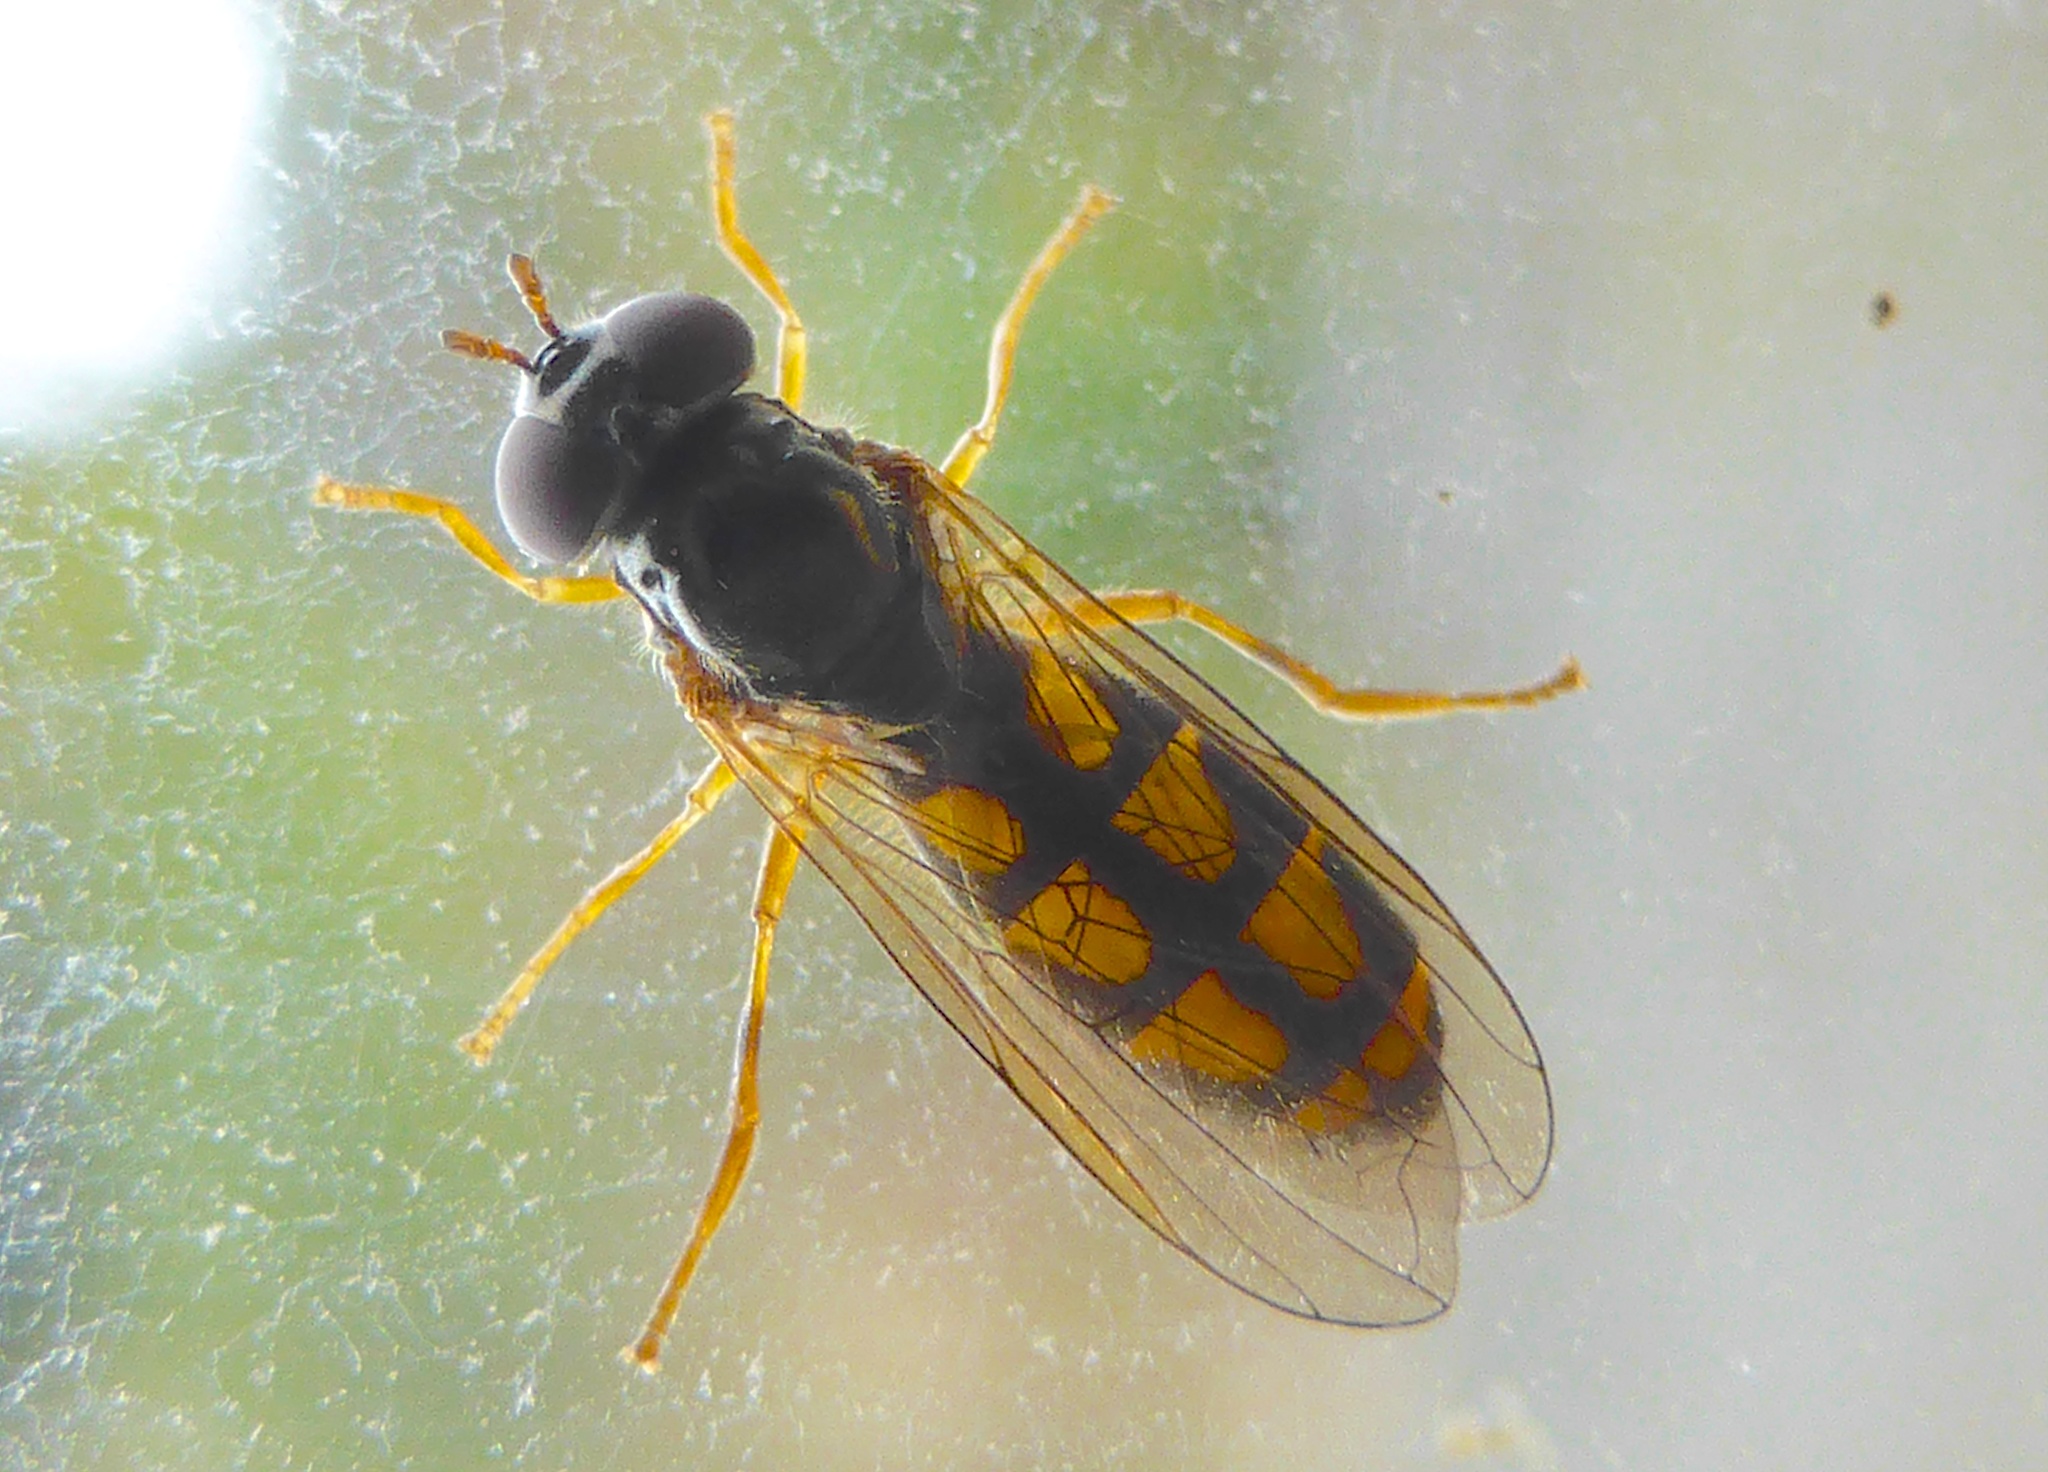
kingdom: Animalia
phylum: Arthropoda
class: Insecta
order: Diptera
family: Syrphidae
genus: Melanostoma
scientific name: Melanostoma fasciatum
